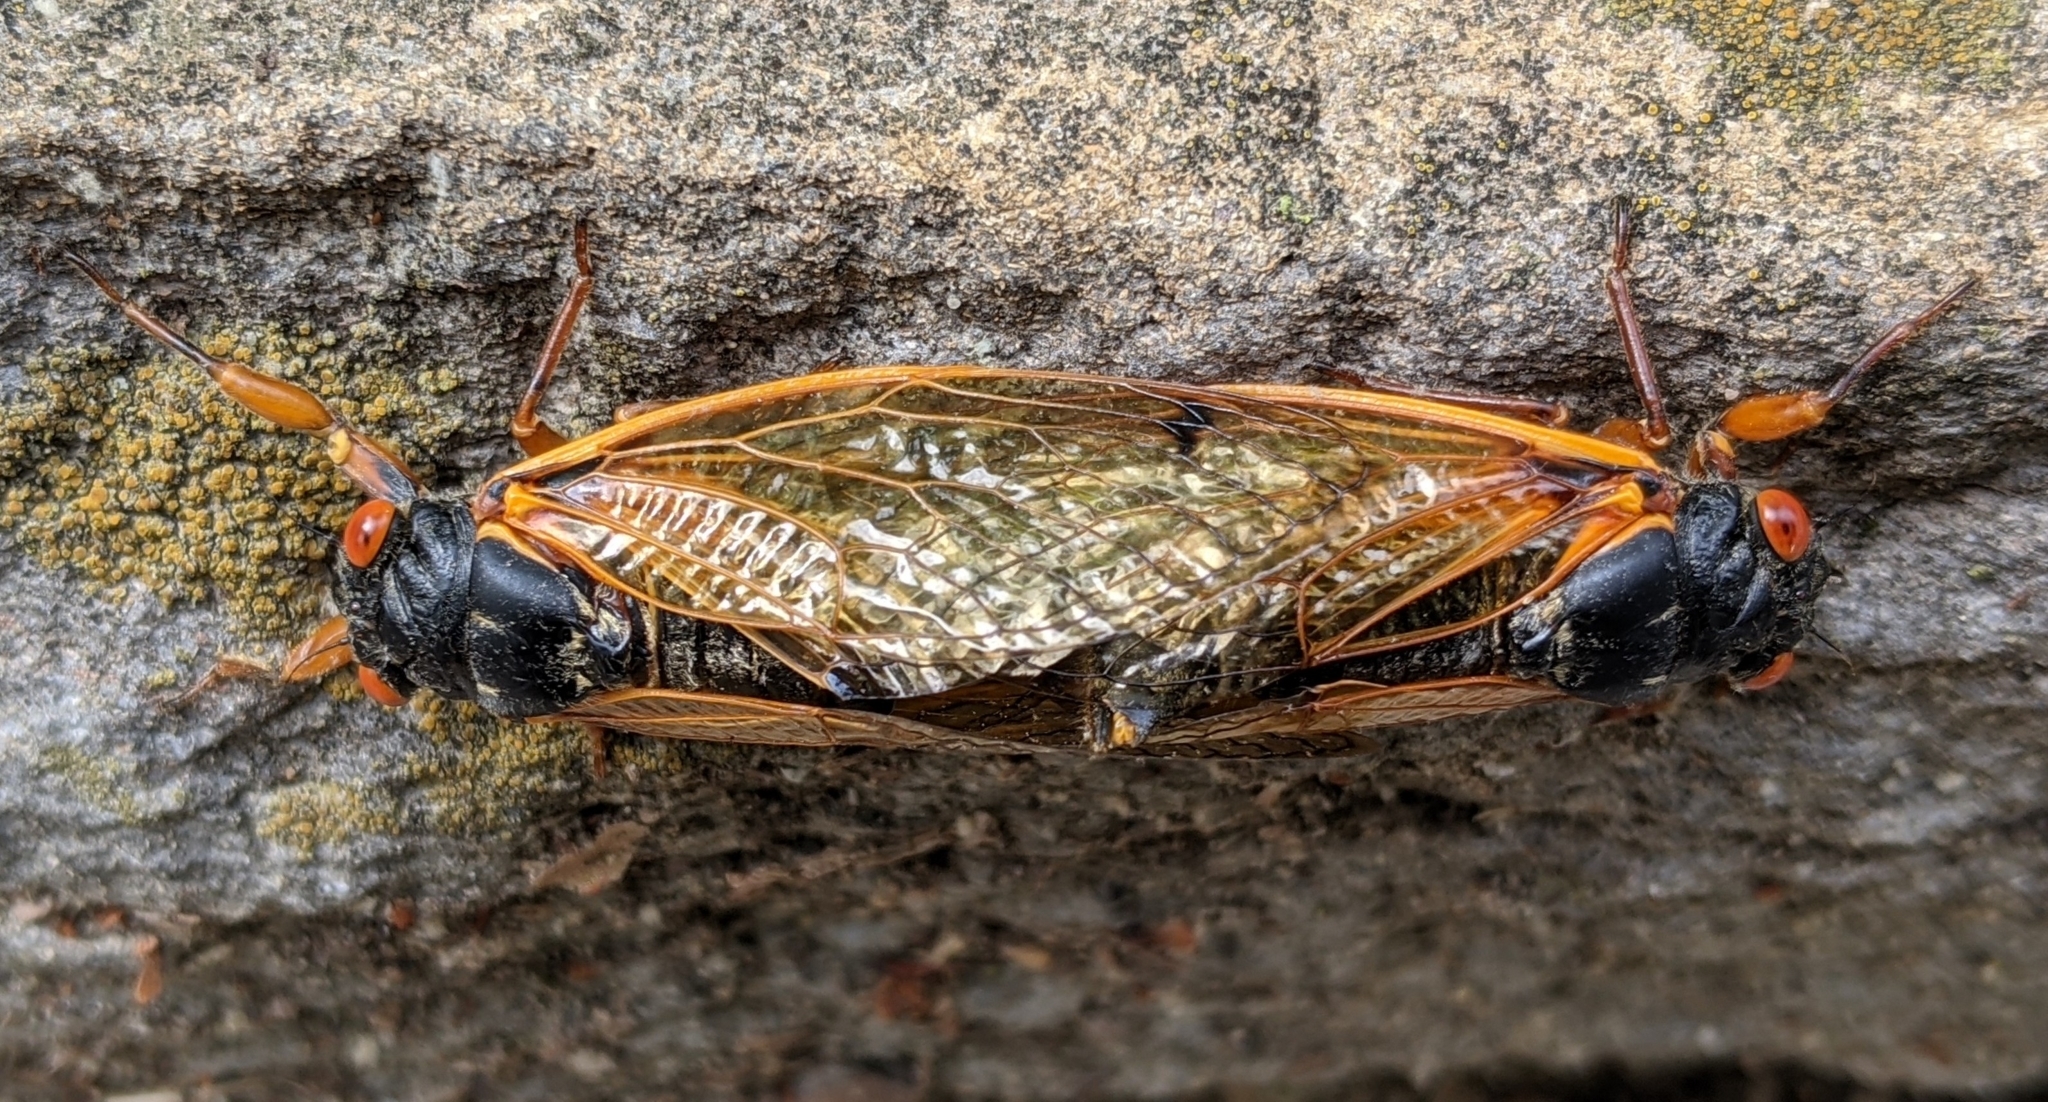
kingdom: Animalia
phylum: Arthropoda
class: Insecta
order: Hemiptera
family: Cicadidae
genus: Magicicada
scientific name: Magicicada cassini
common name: Cassin's 17-year cicada
